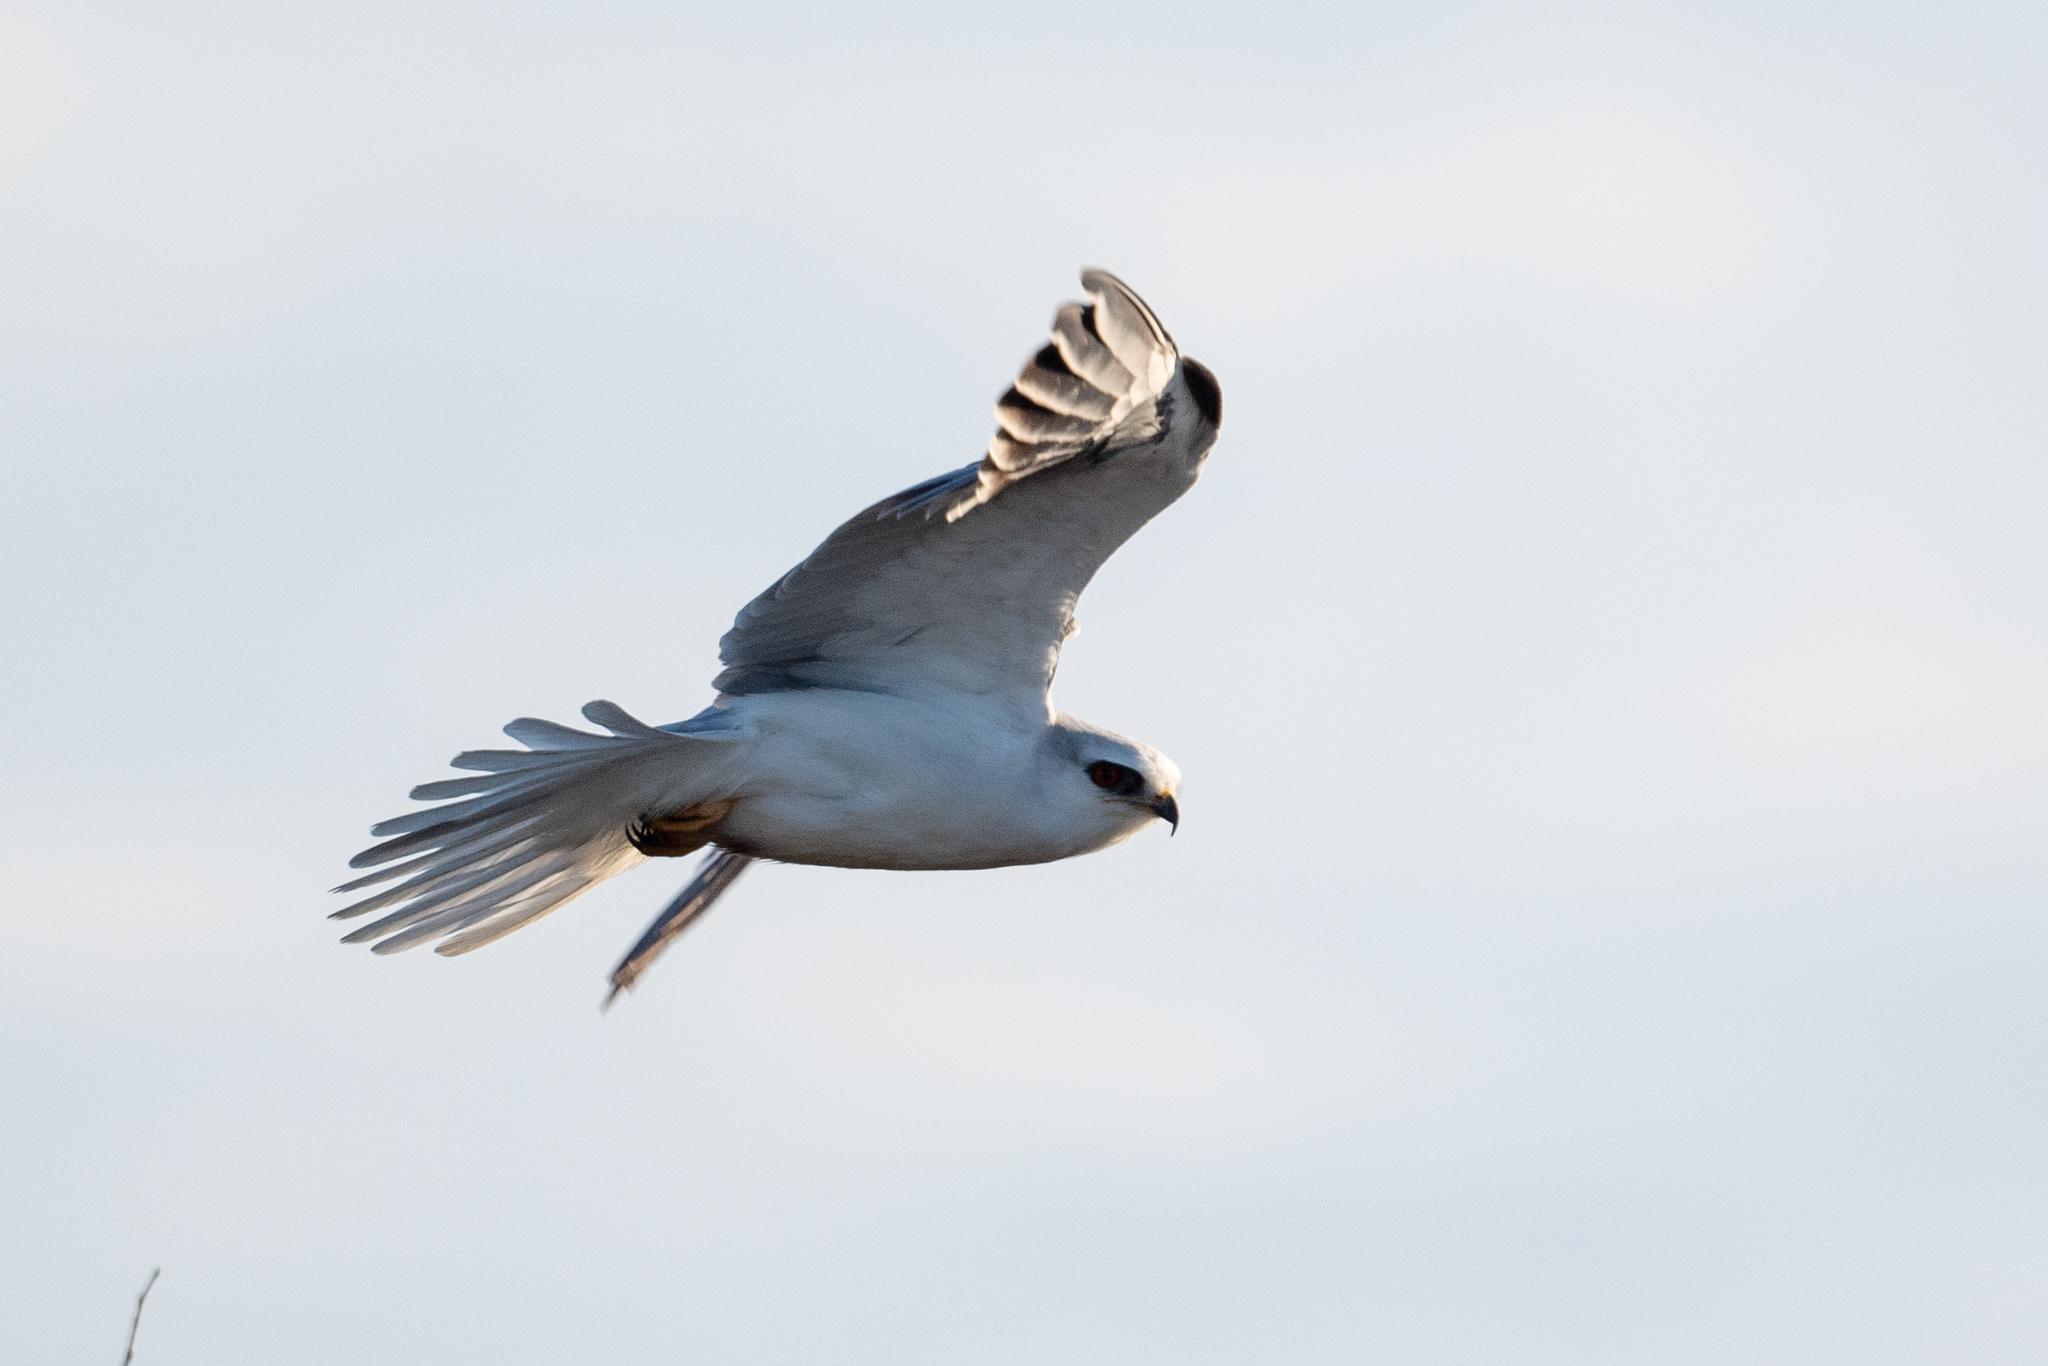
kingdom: Animalia
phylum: Chordata
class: Aves
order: Accipitriformes
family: Accipitridae
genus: Elanus
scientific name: Elanus leucurus
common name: White-tailed kite
